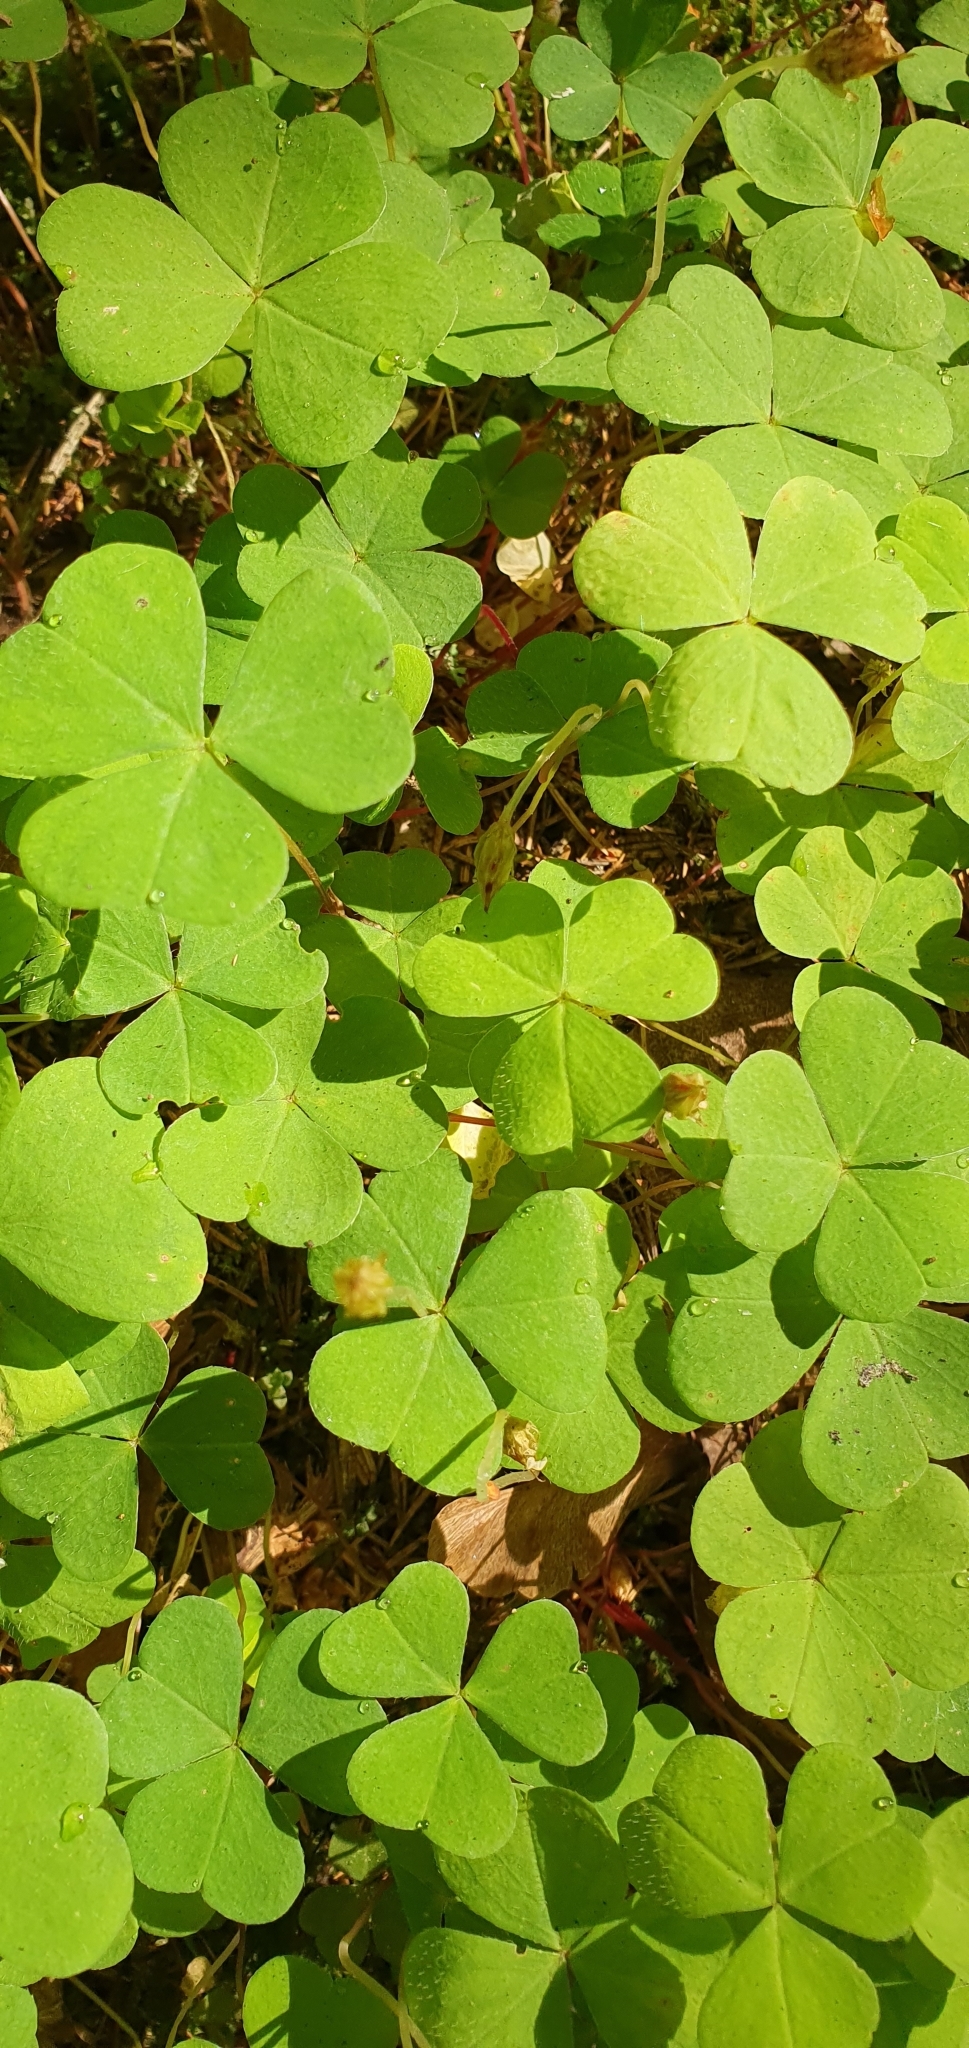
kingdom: Plantae
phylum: Tracheophyta
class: Magnoliopsida
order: Oxalidales
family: Oxalidaceae
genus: Oxalis
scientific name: Oxalis acetosella
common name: Wood-sorrel
